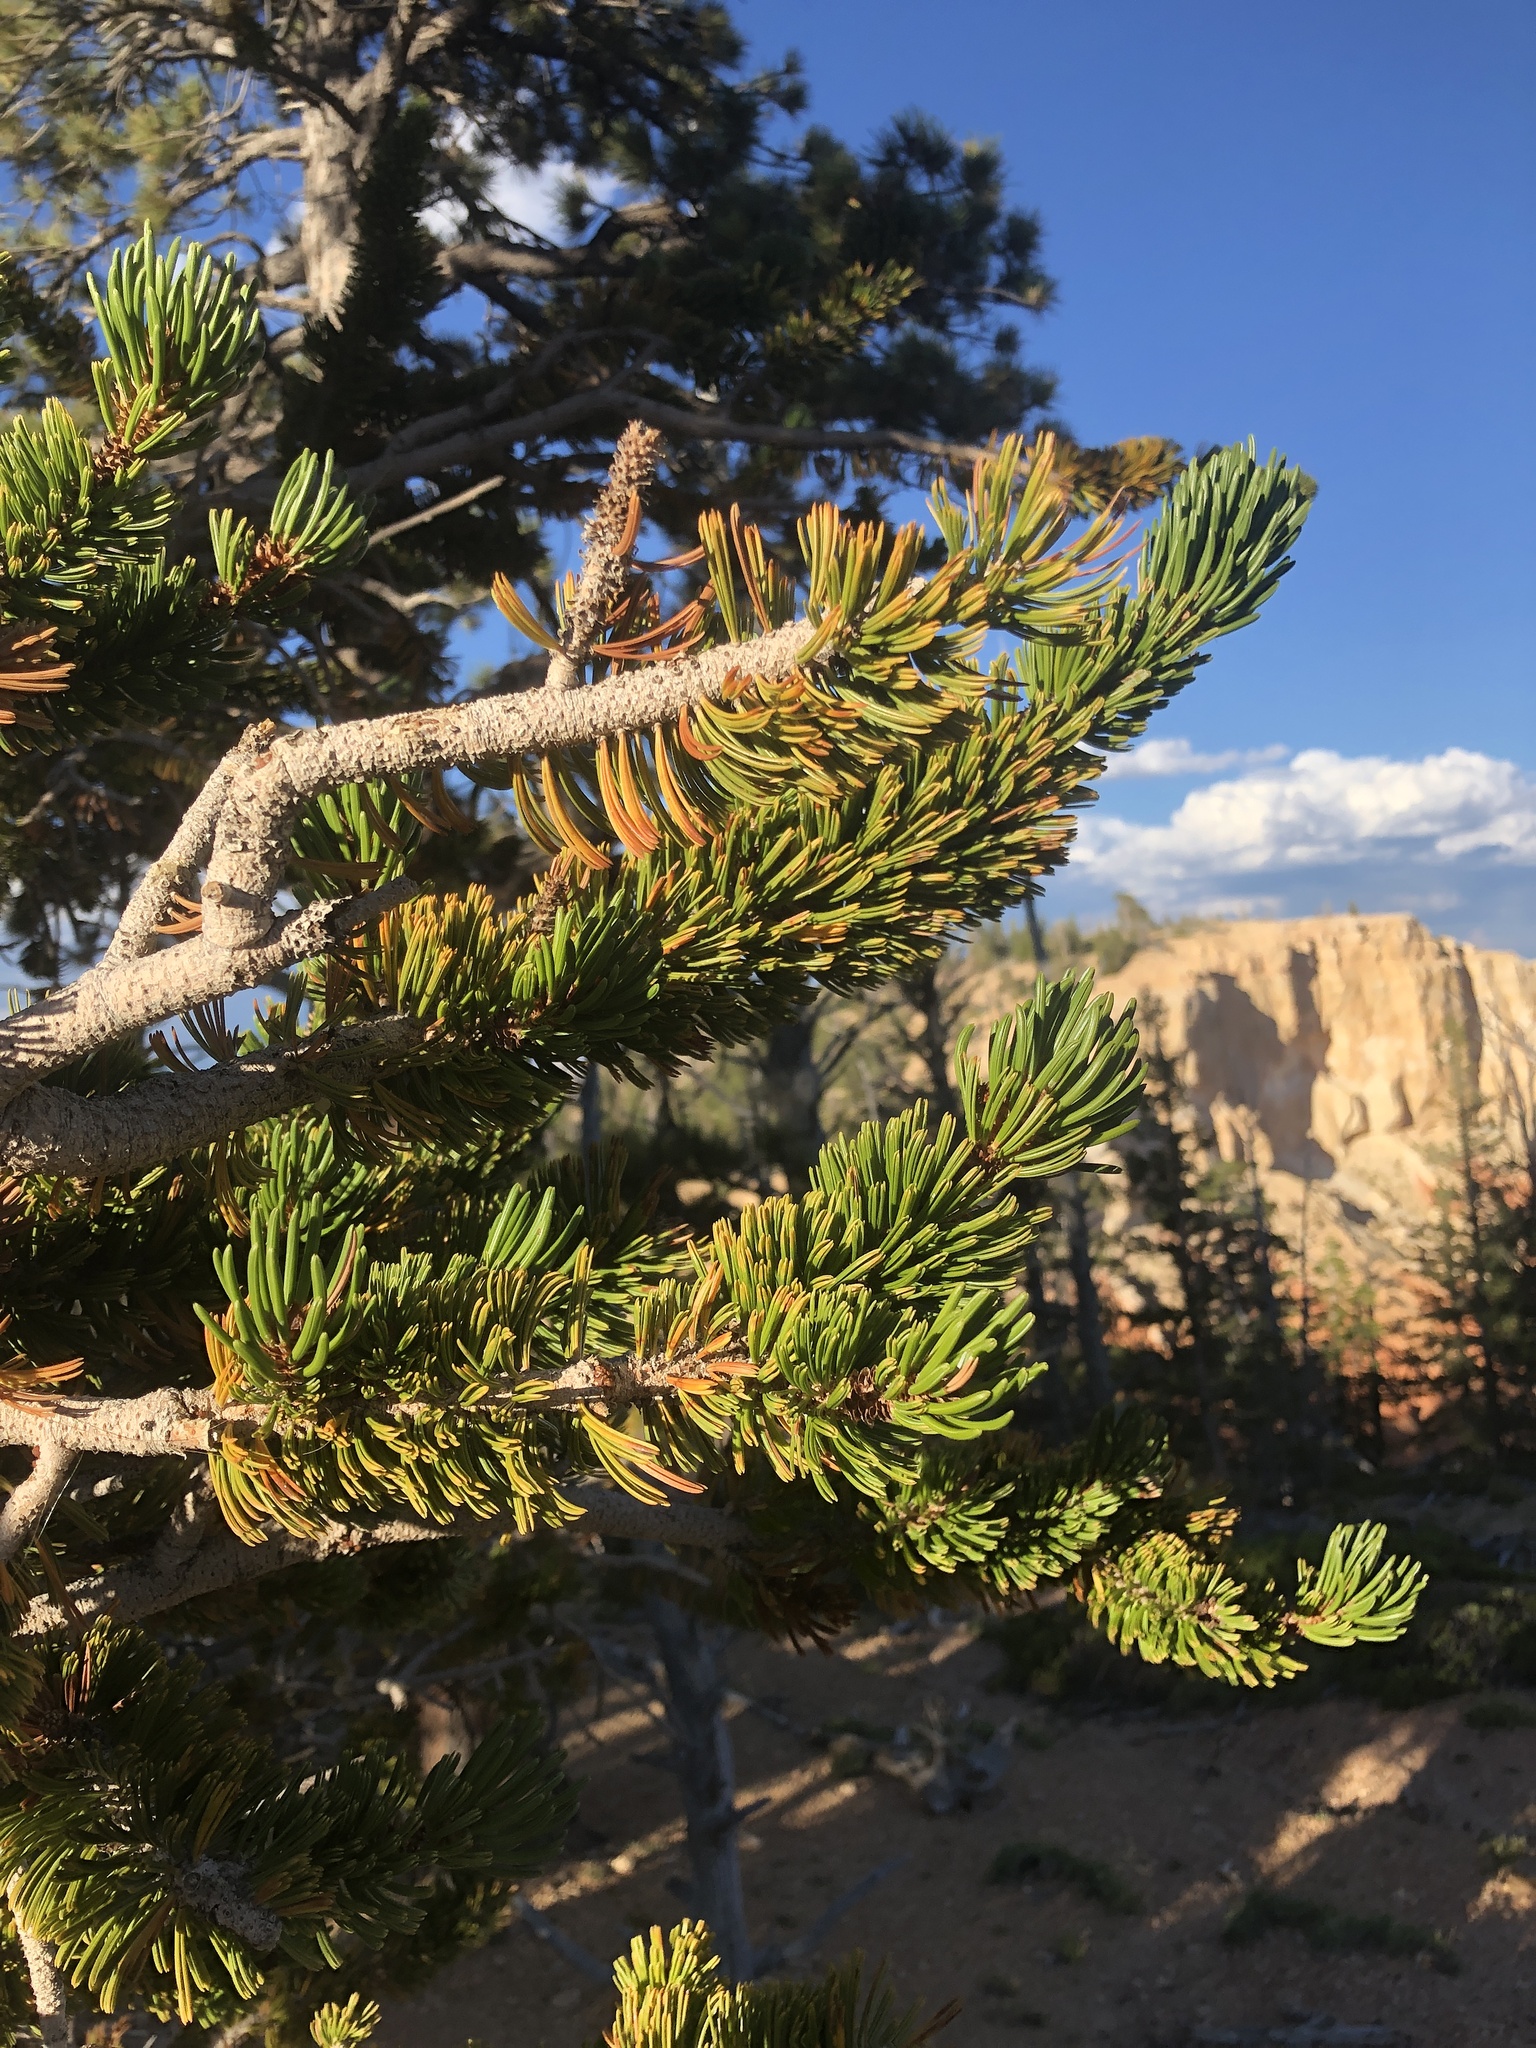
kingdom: Plantae
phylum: Tracheophyta
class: Pinopsida
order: Pinales
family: Pinaceae
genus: Pinus
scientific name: Pinus longaeva
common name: Intermountain bristlecone pine
